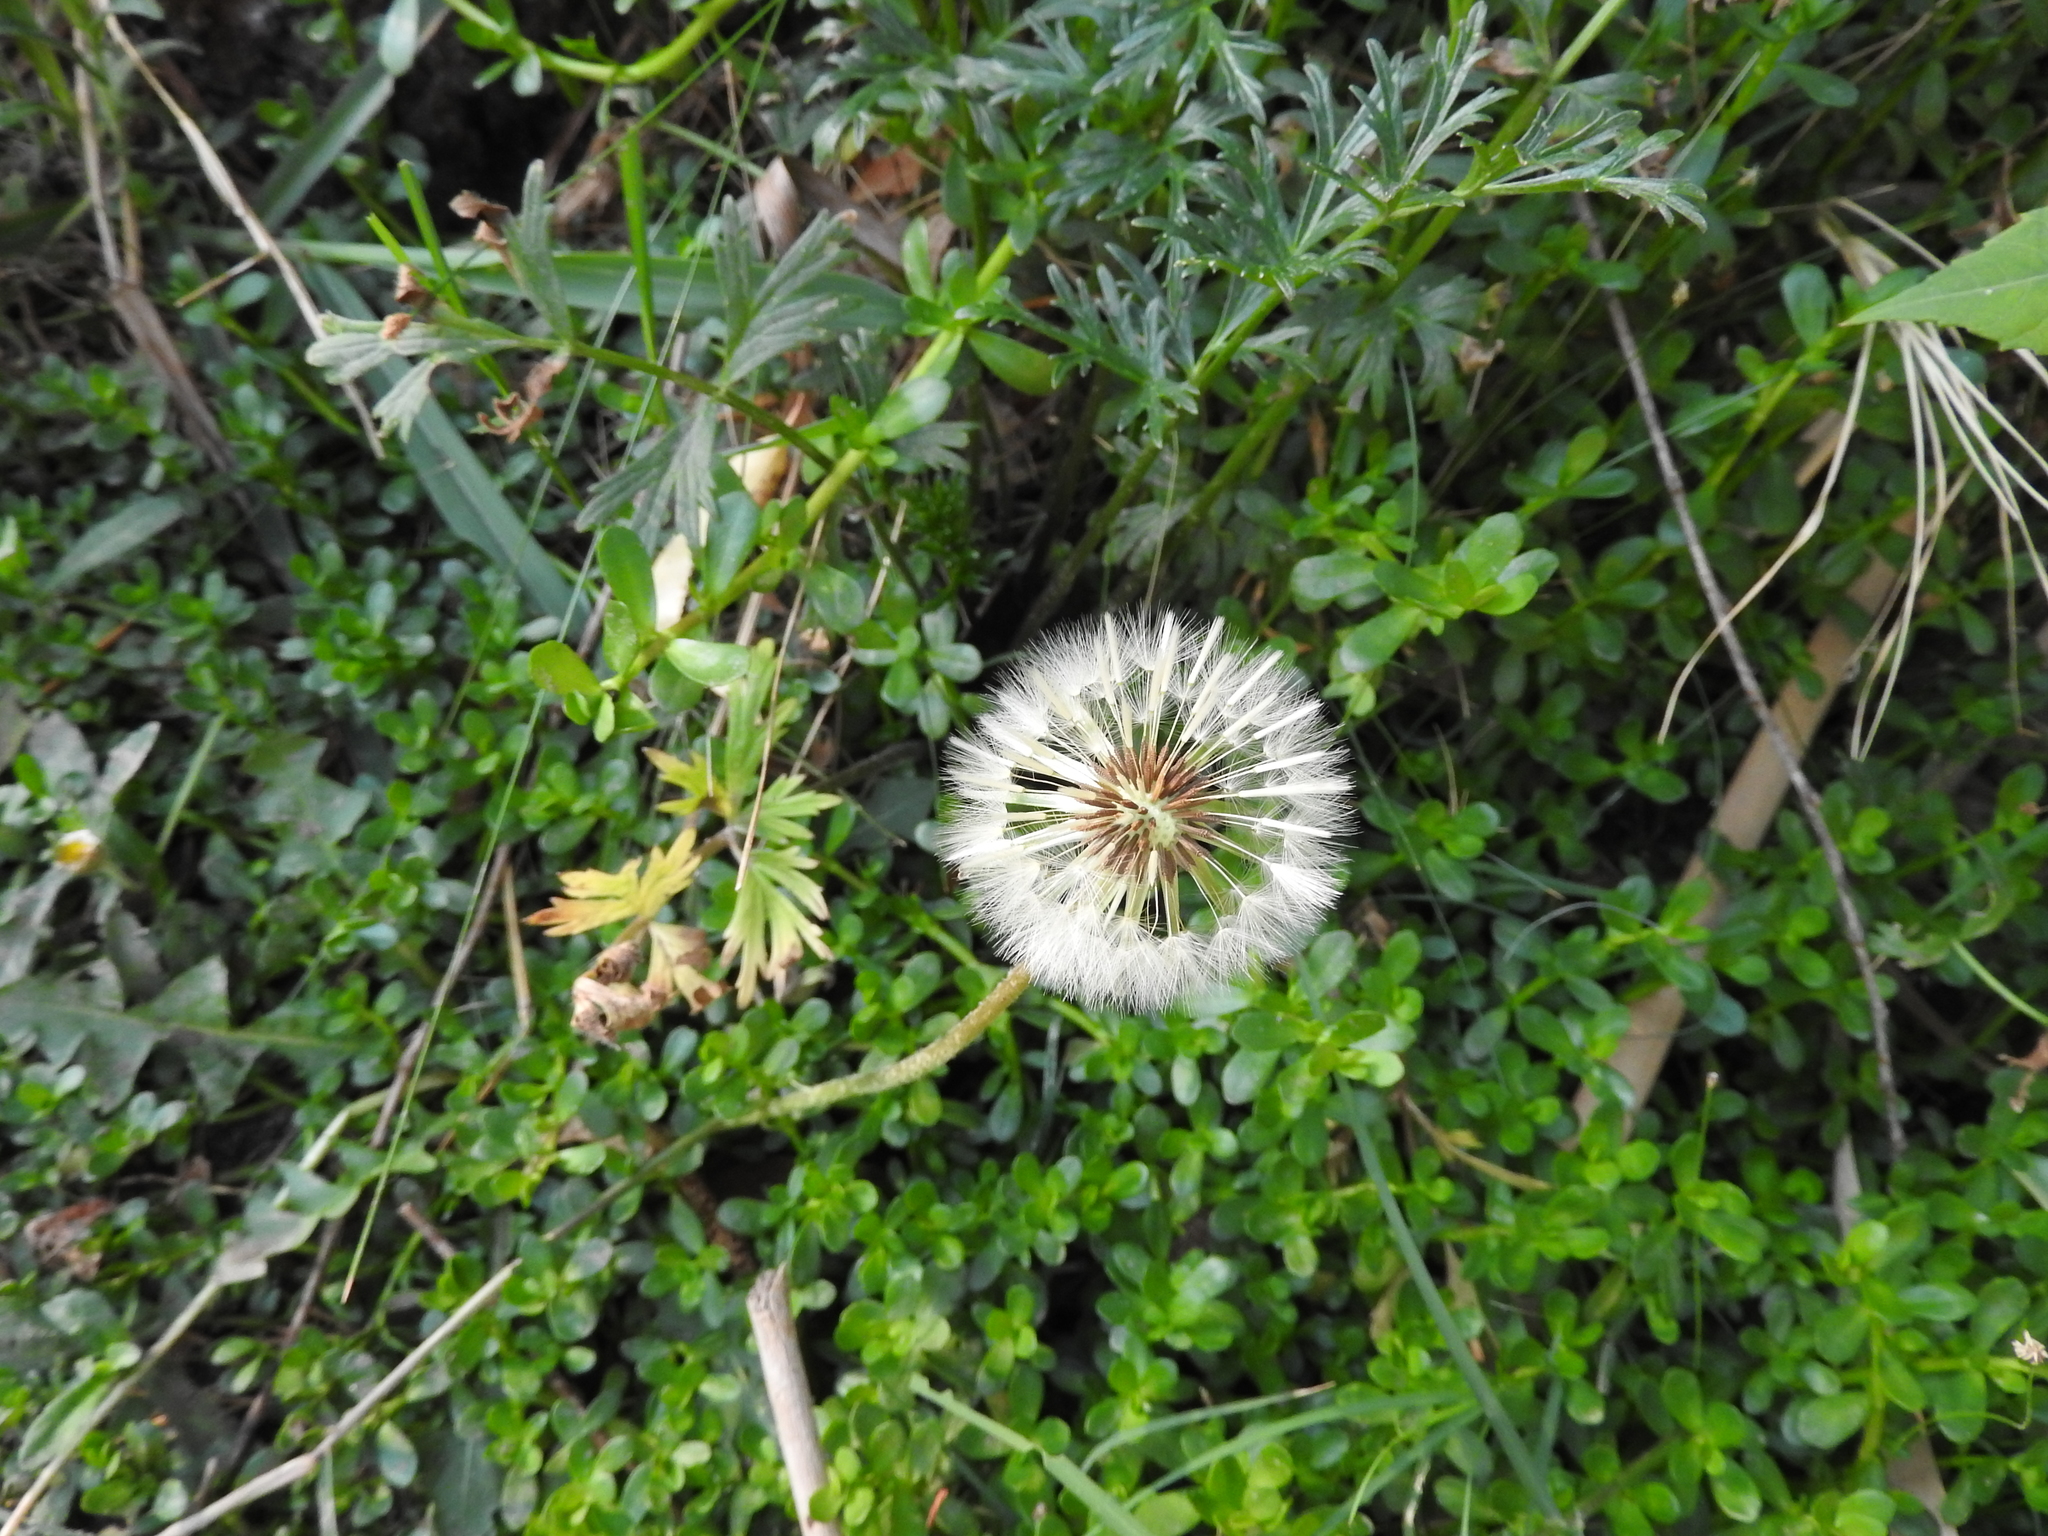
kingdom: Plantae
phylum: Tracheophyta
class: Magnoliopsida
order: Asterales
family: Asteraceae
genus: Taraxacum
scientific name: Taraxacum officinale
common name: Common dandelion
